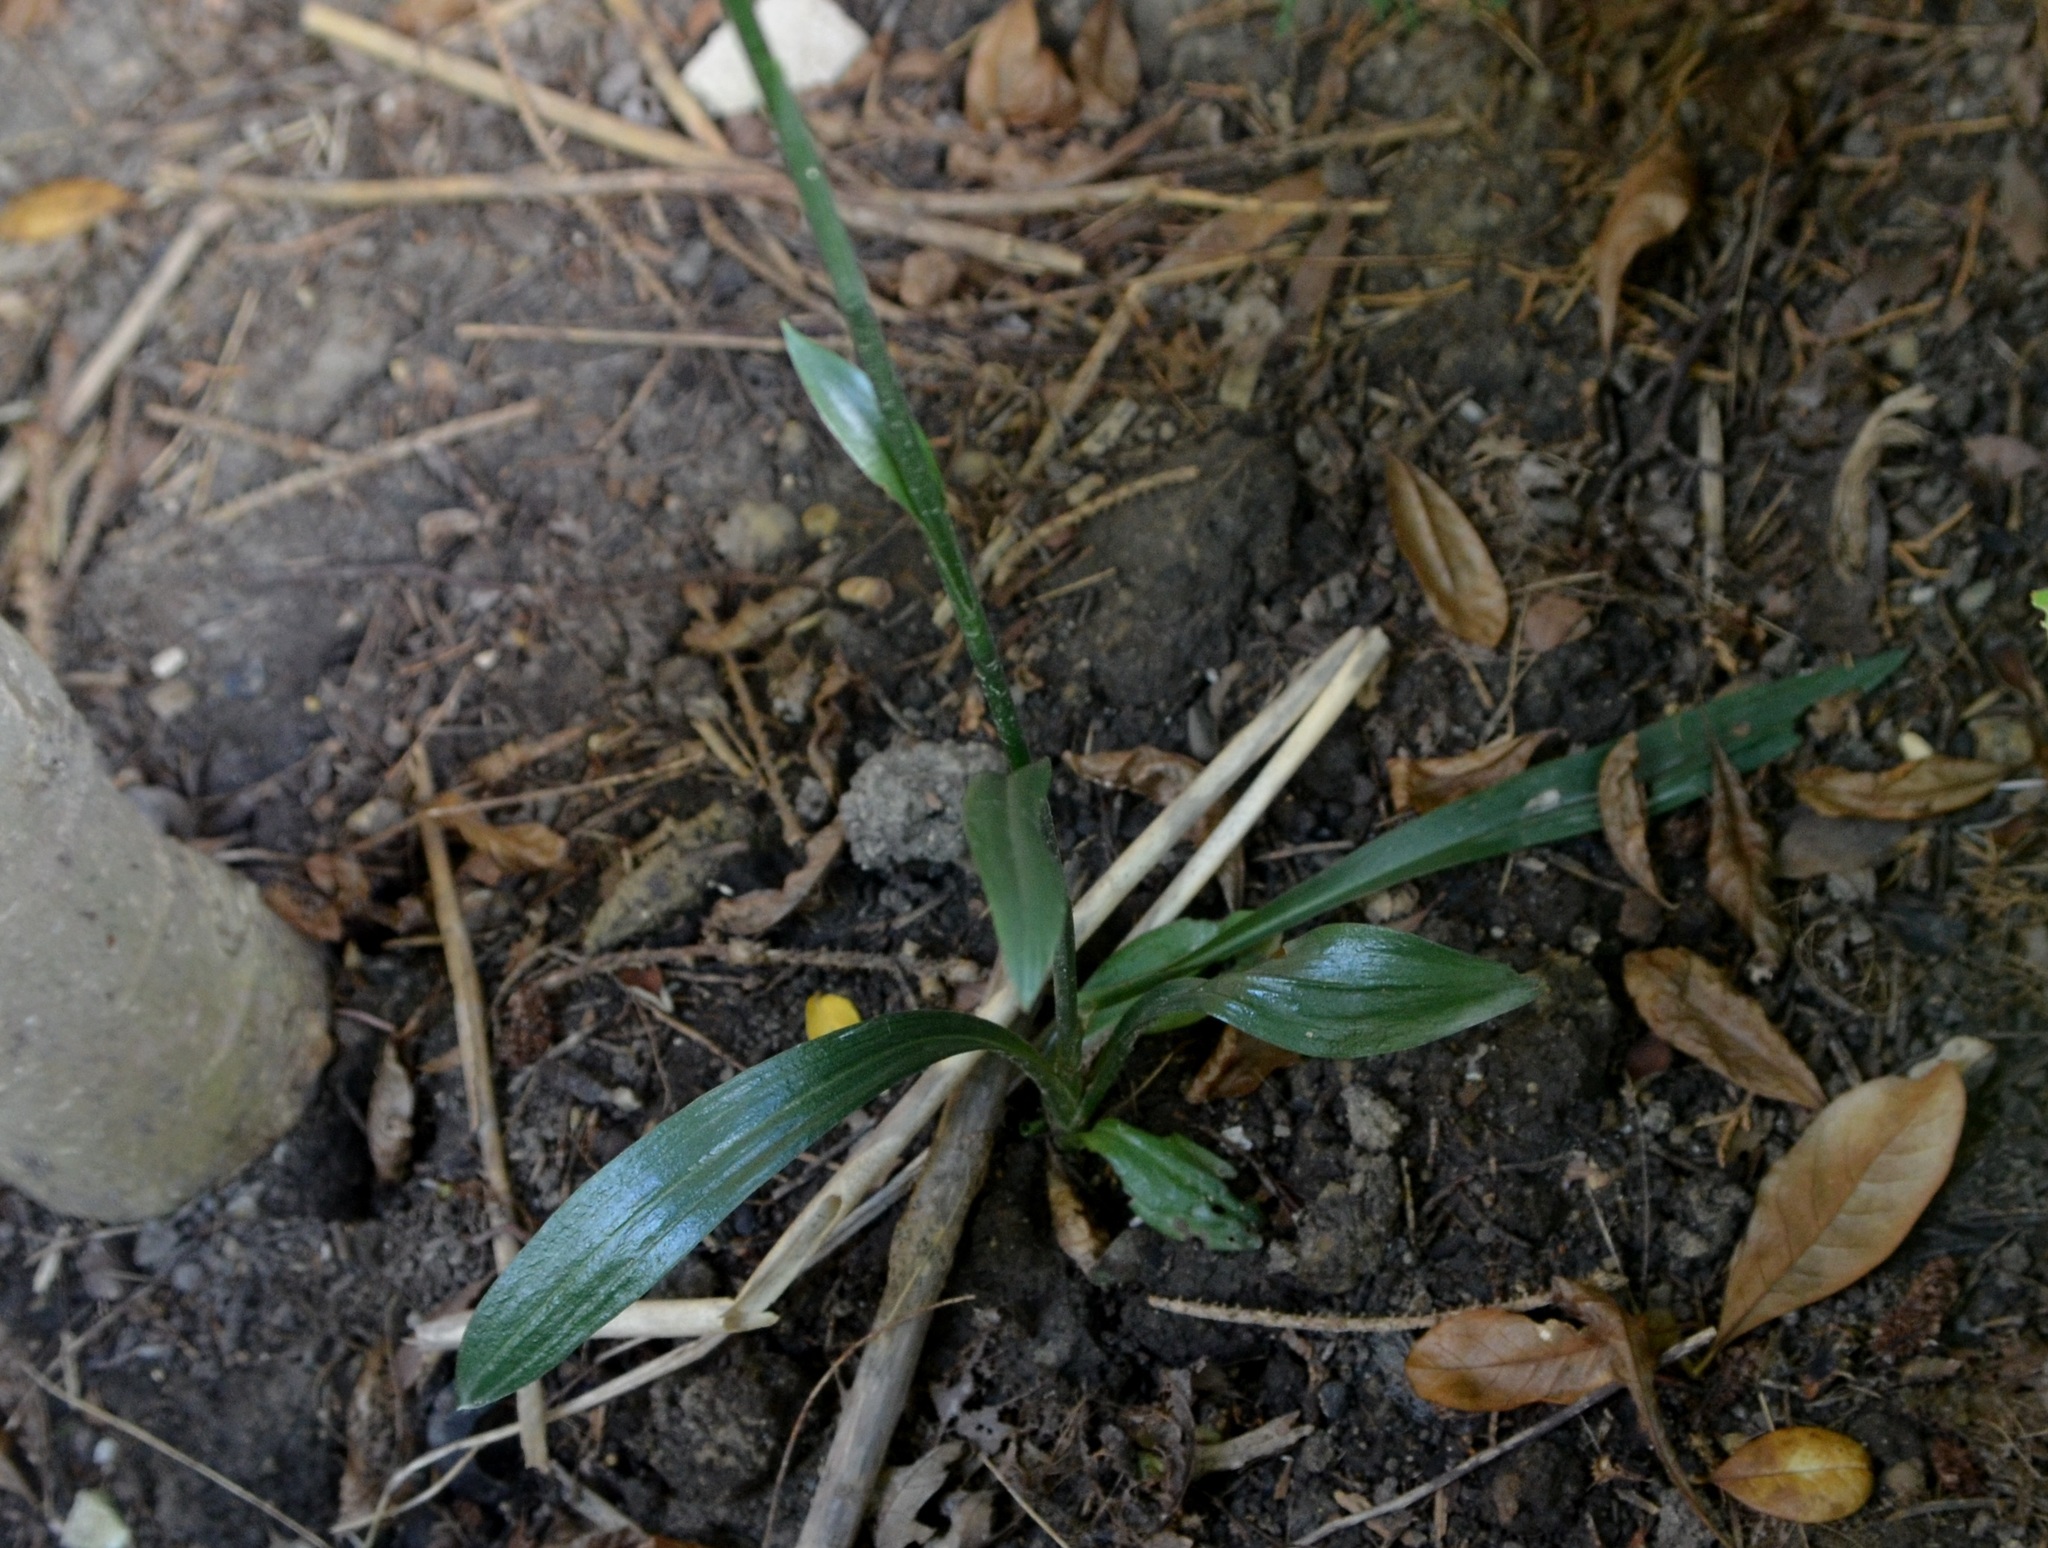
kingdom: Plantae
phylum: Tracheophyta
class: Liliopsida
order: Asparagales
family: Orchidaceae
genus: Spiranthes
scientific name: Spiranthes ovalis
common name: October ladies'-tresses
